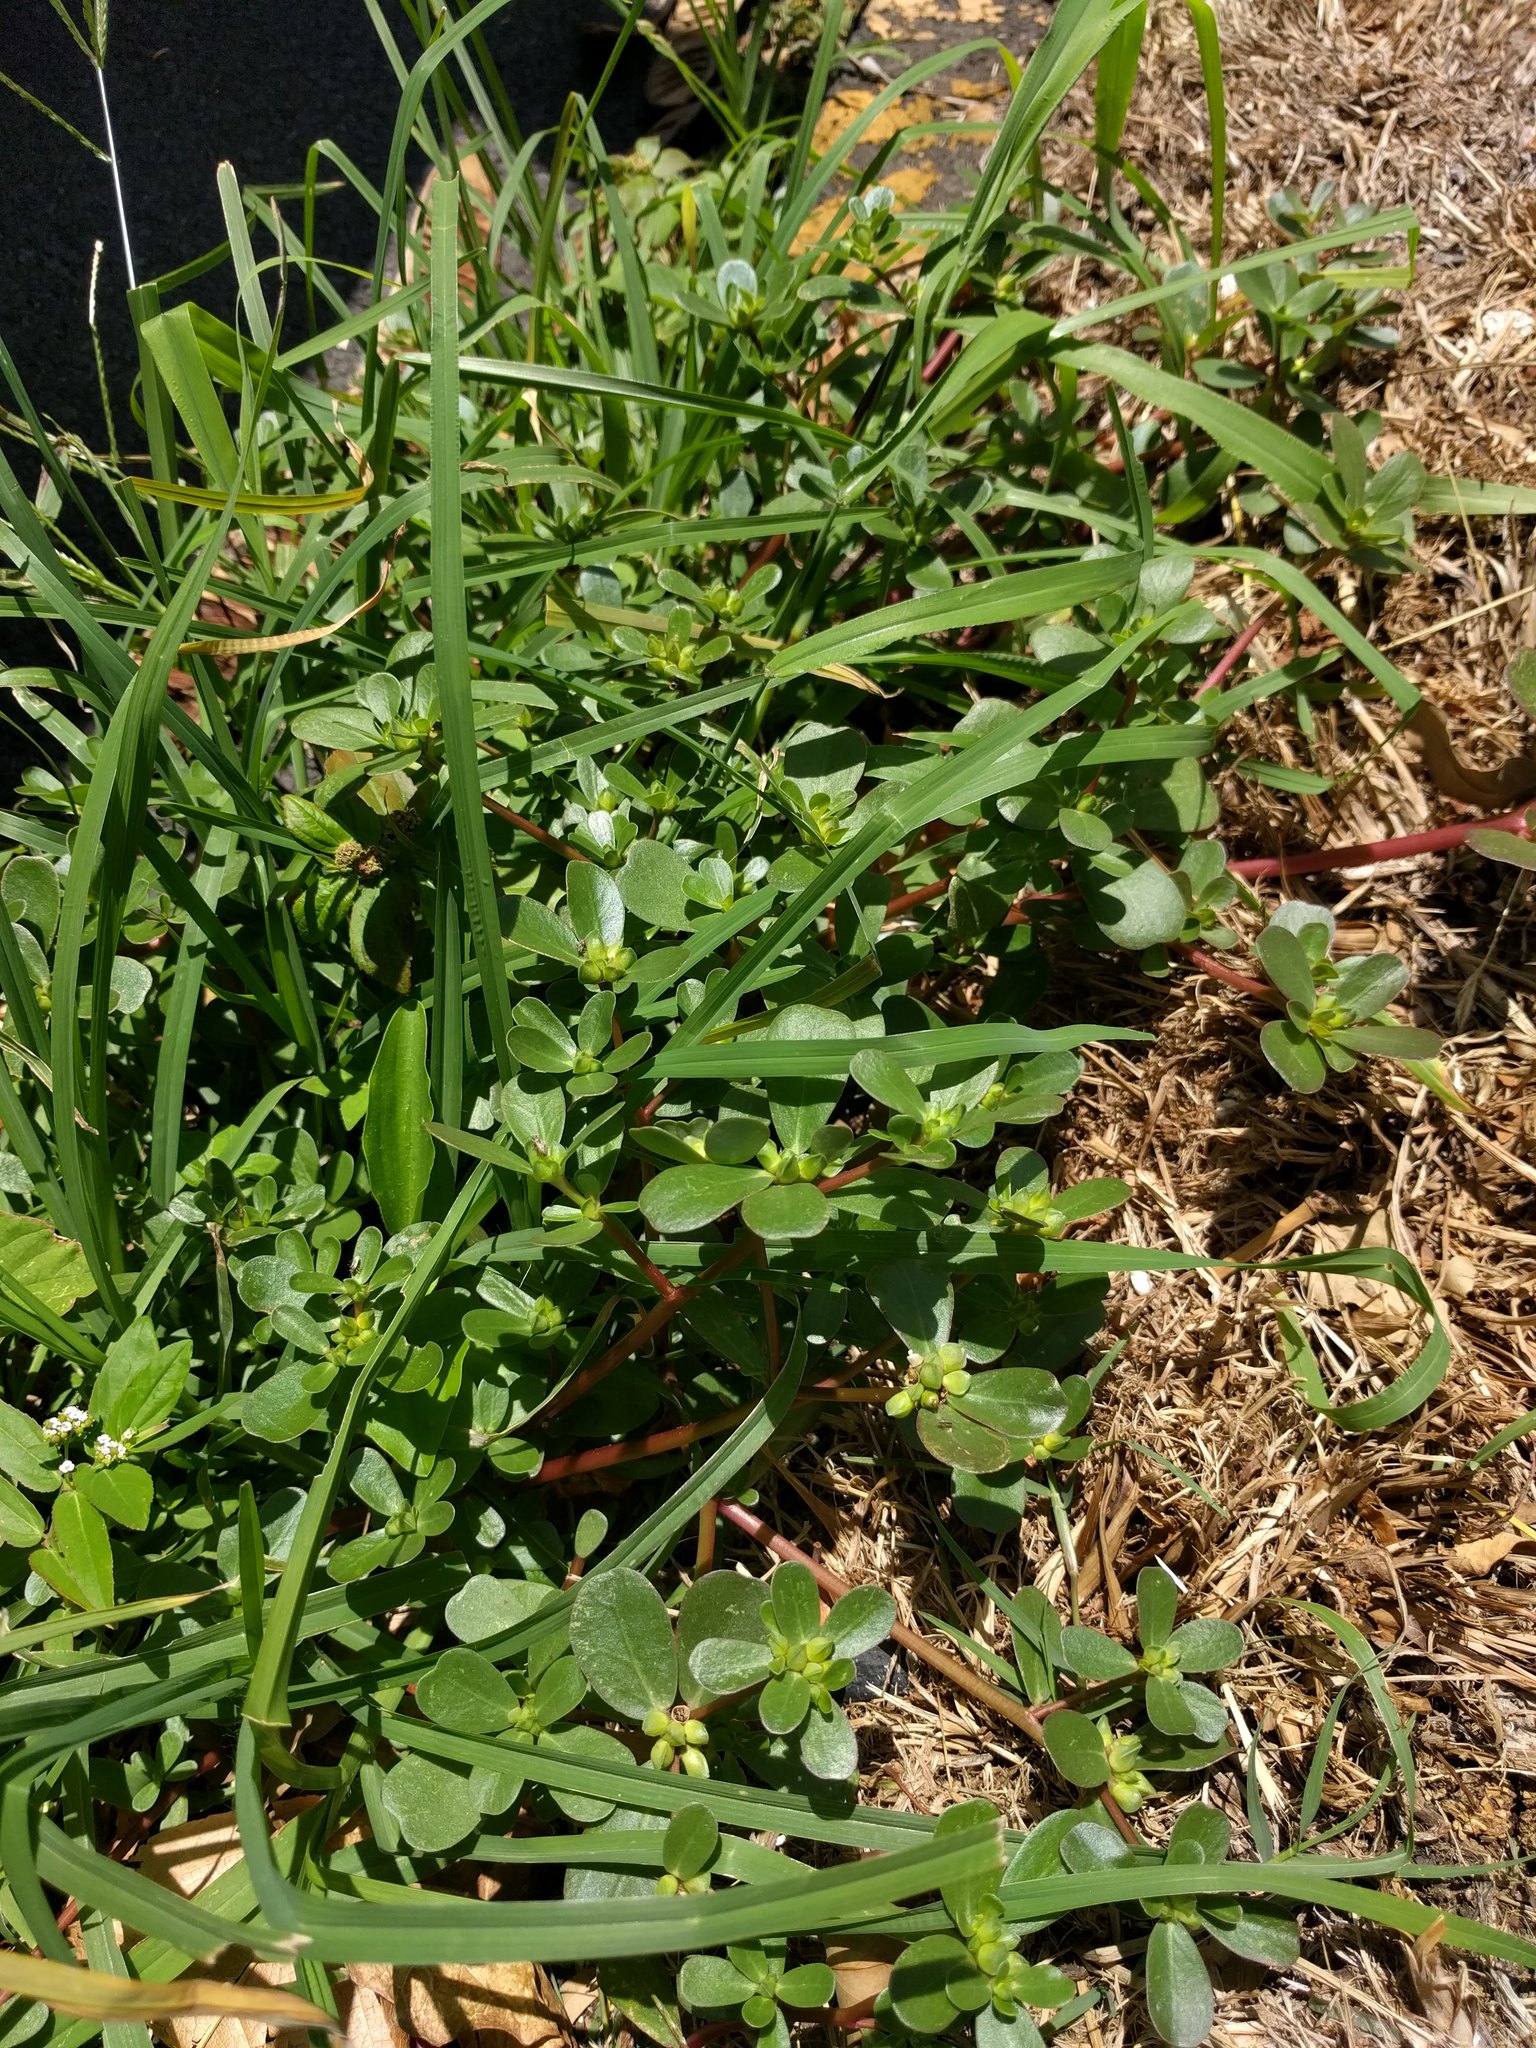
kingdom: Plantae
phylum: Tracheophyta
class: Magnoliopsida
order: Caryophyllales
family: Portulacaceae
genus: Portulaca
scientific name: Portulaca oleracea
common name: Common purslane
